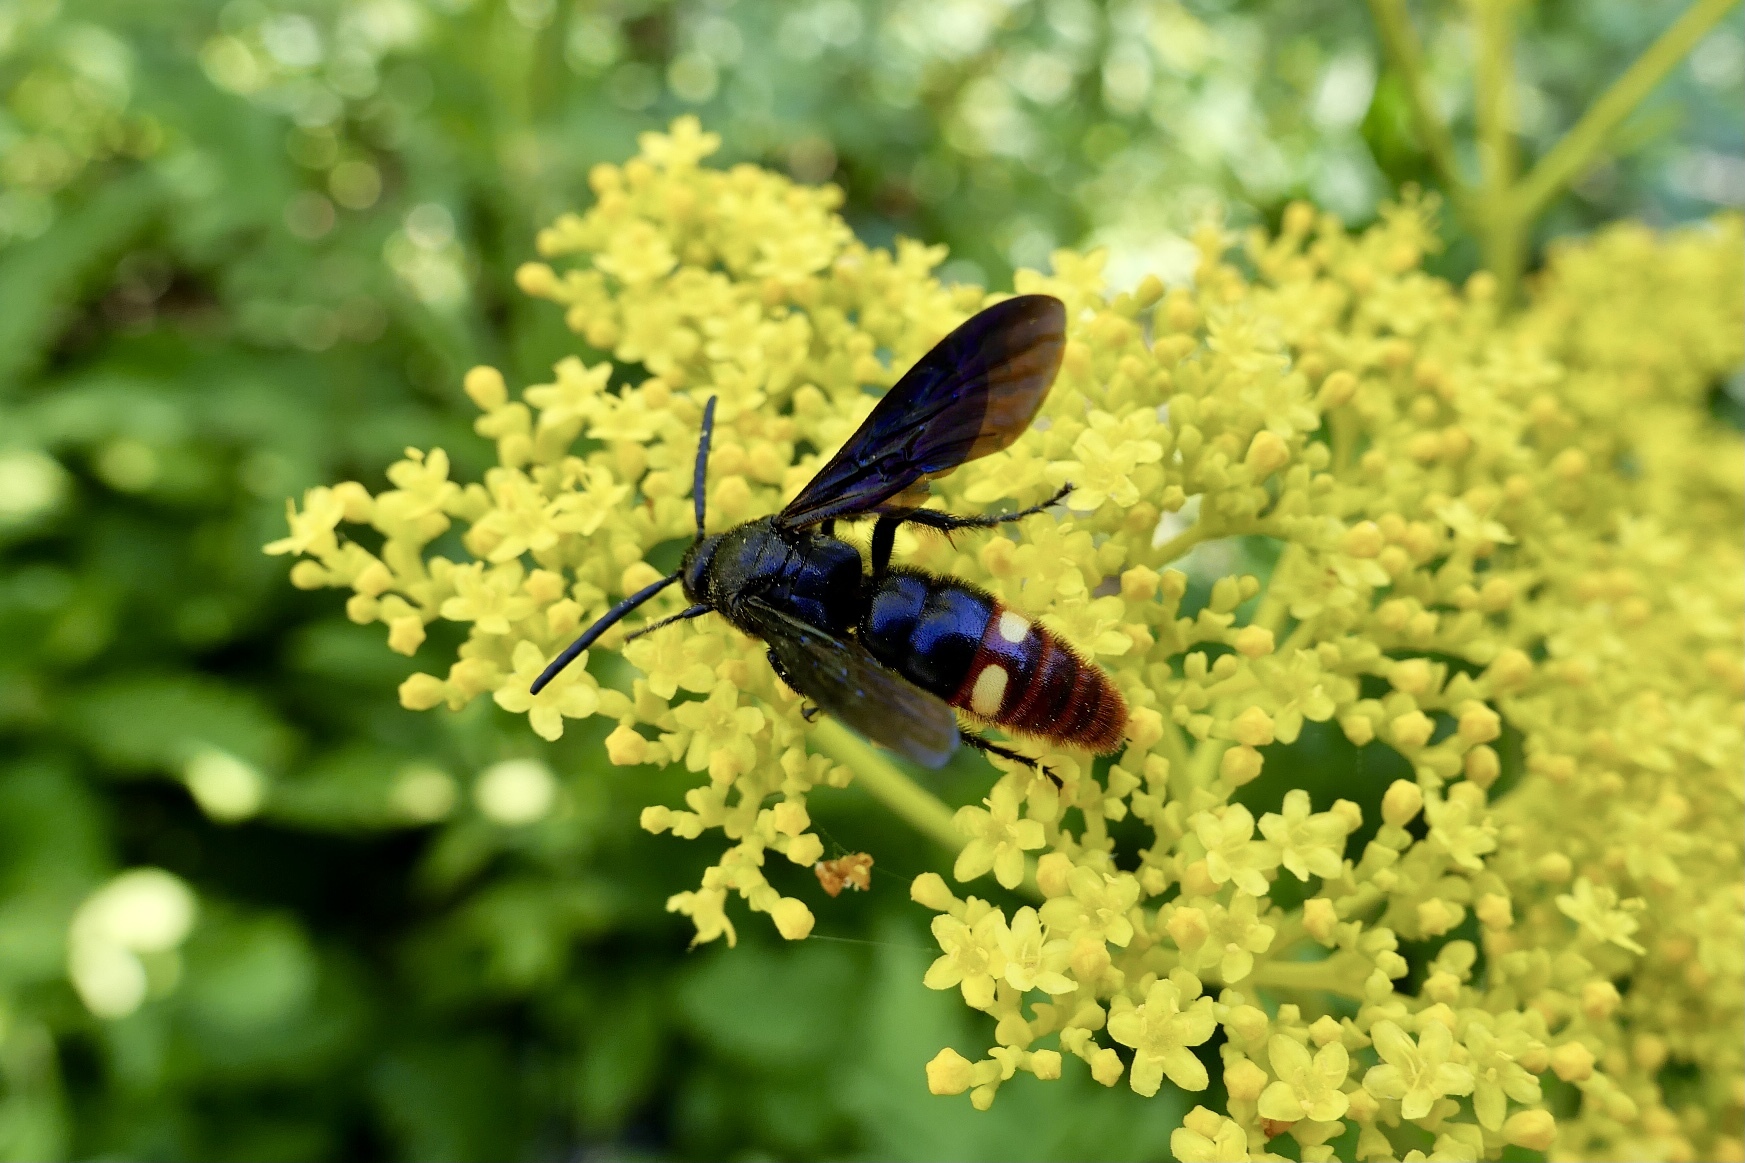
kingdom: Animalia
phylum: Arthropoda
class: Insecta
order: Hymenoptera
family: Scoliidae
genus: Scolia
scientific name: Scolia dubia
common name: Blue-winged scoliid wasp
